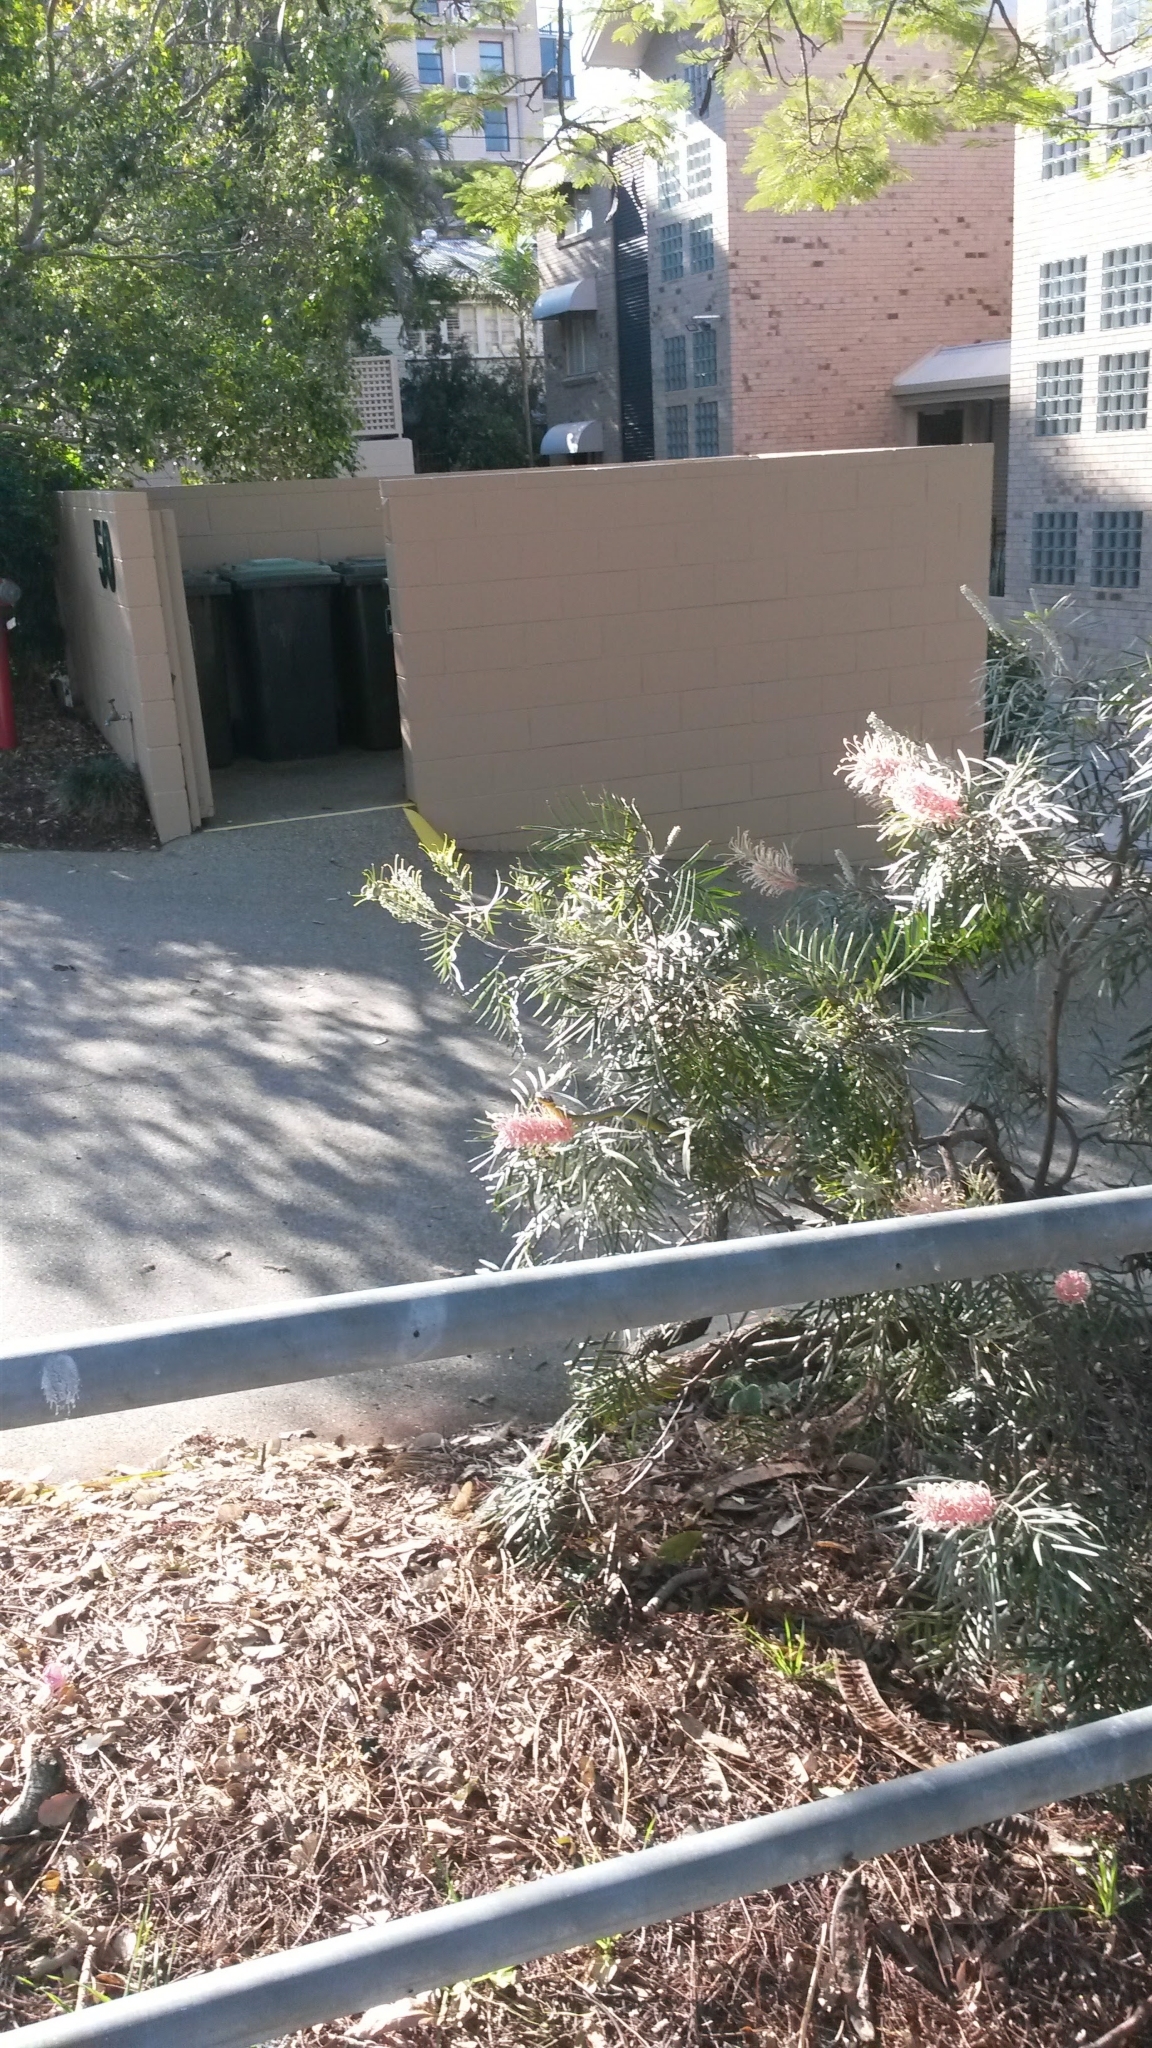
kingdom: Animalia
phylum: Chordata
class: Squamata
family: Colubridae
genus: Dendrelaphis
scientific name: Dendrelaphis punctulatus
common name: Common tree snake
